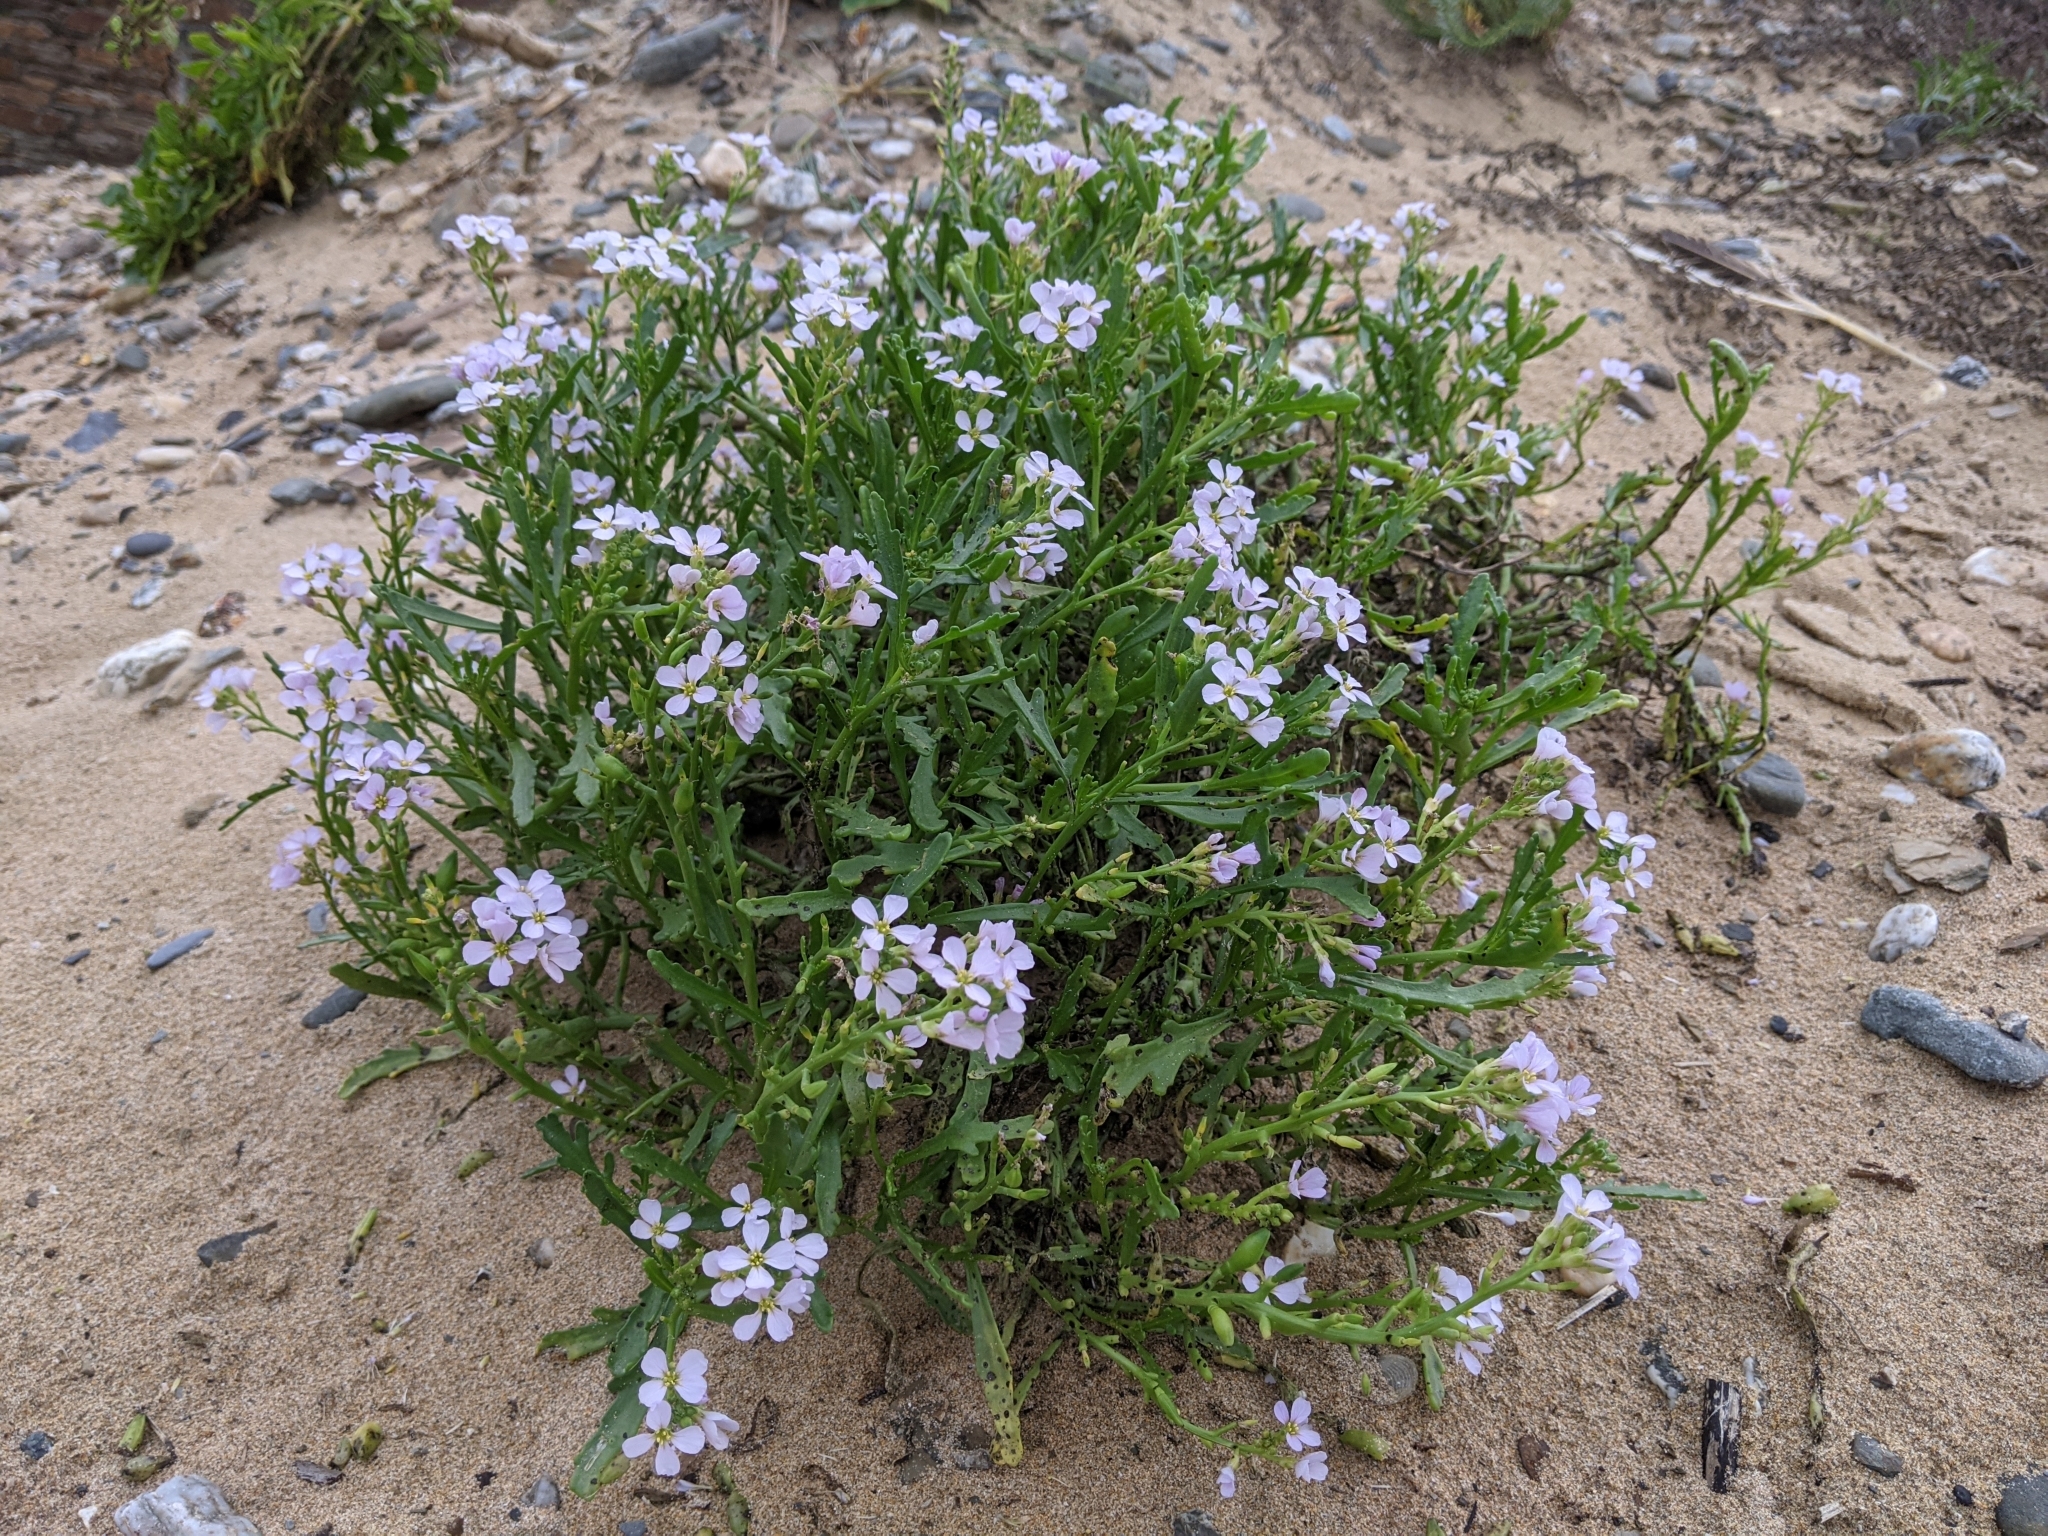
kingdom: Plantae
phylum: Tracheophyta
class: Magnoliopsida
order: Brassicales
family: Brassicaceae
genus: Cakile
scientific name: Cakile maritima
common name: Sea rocket
